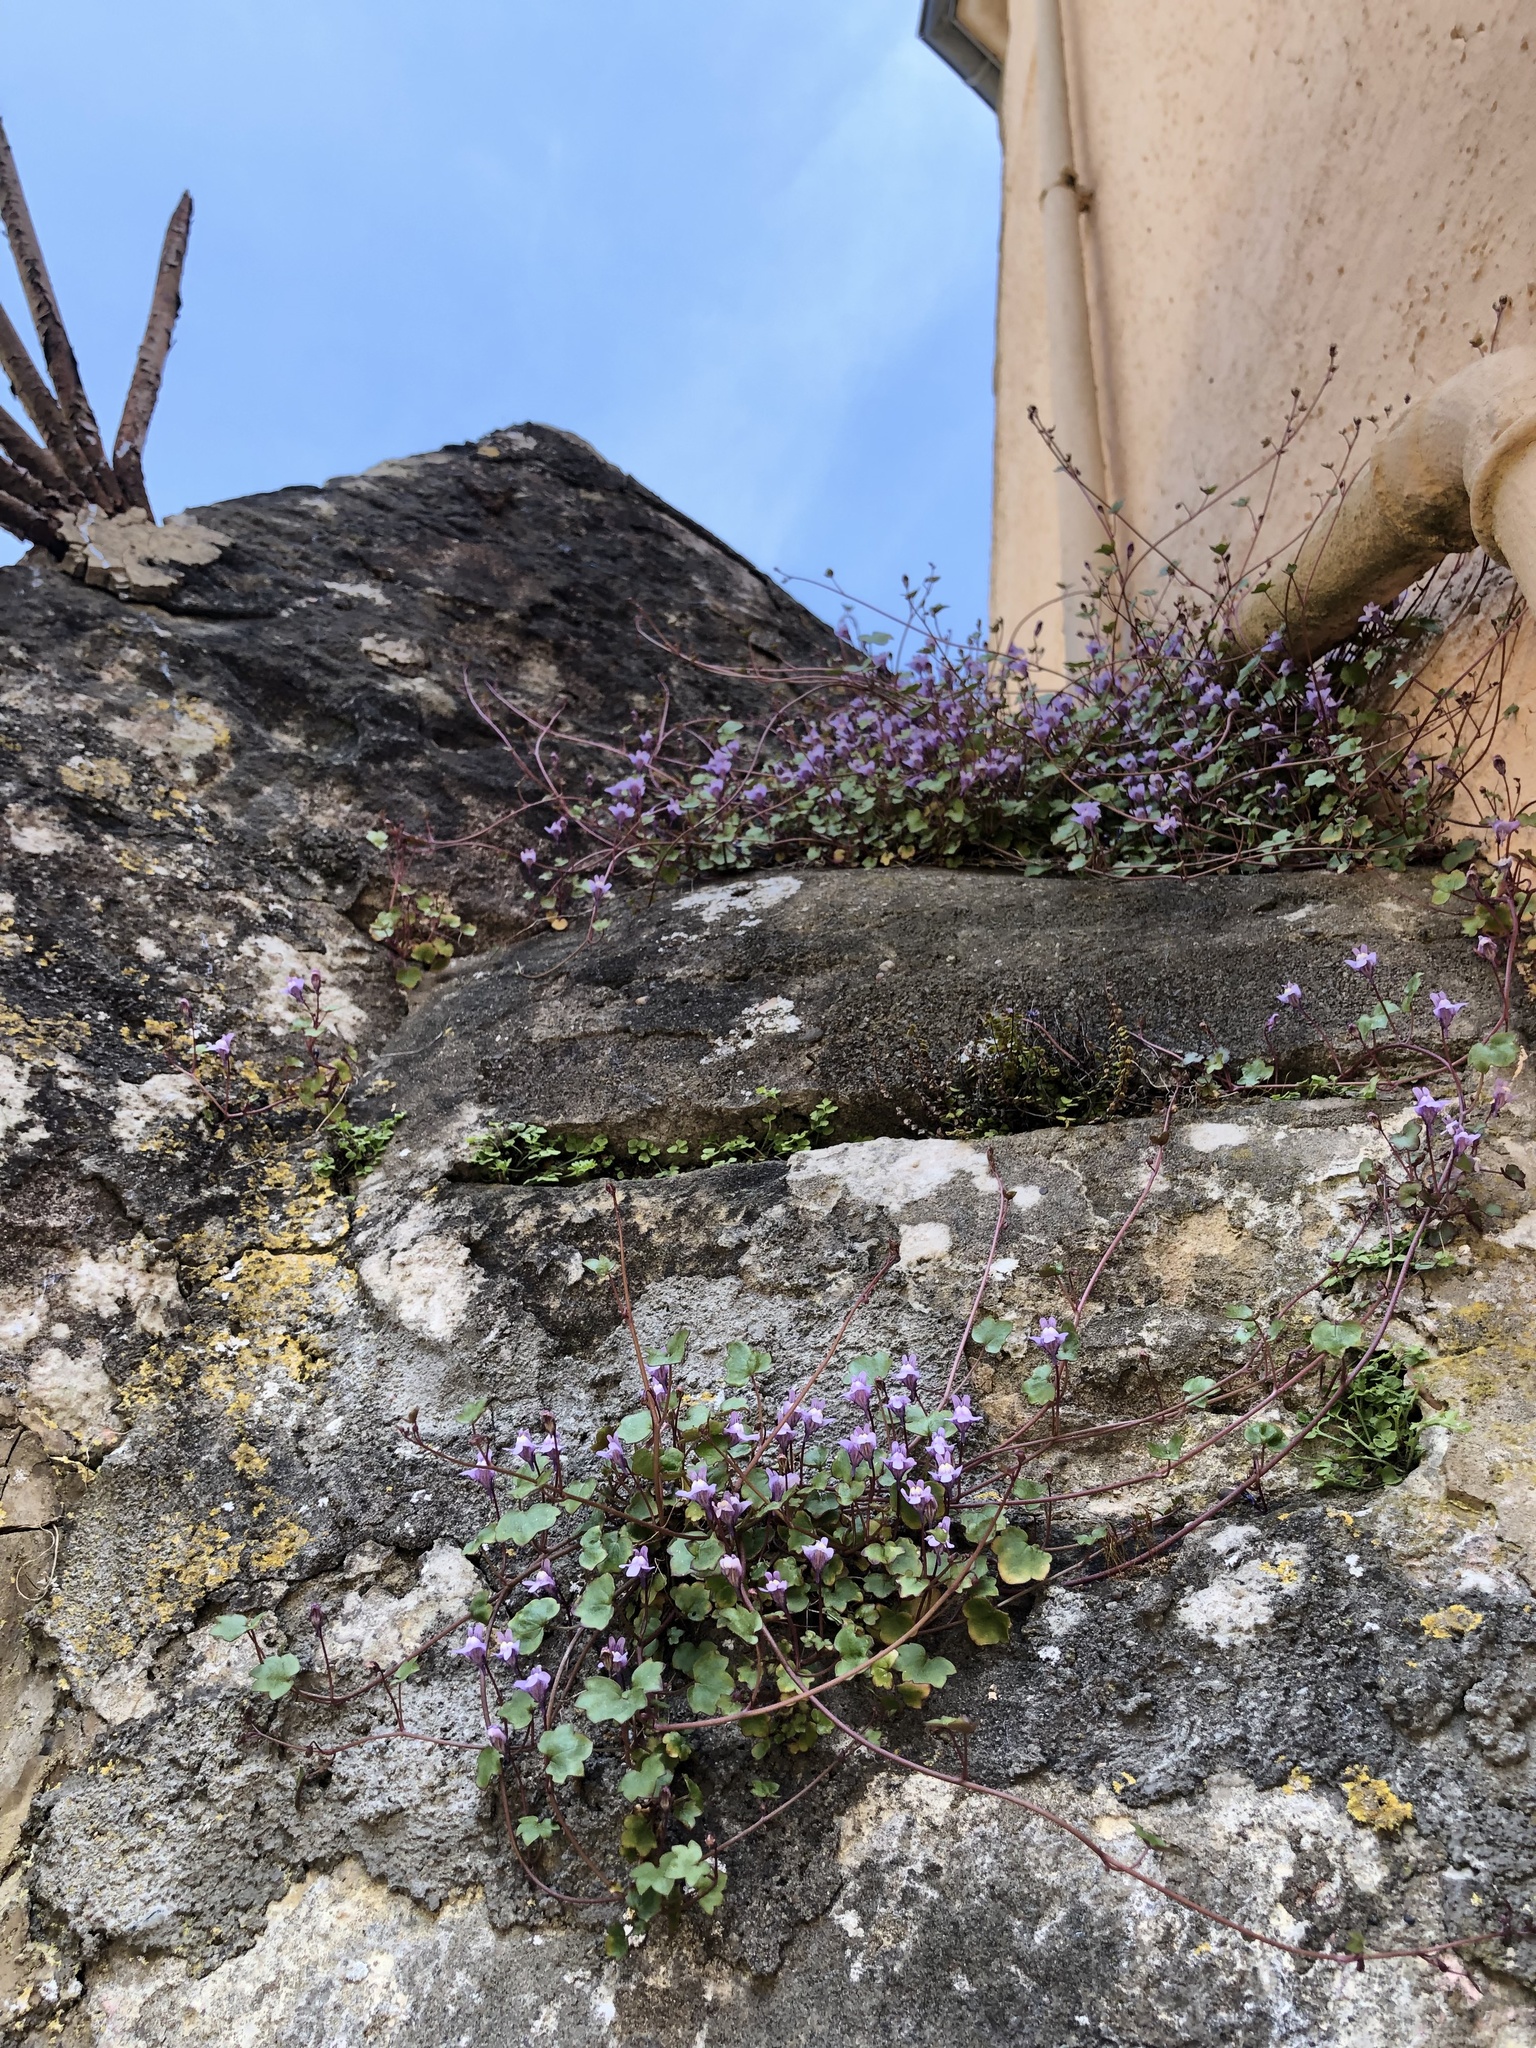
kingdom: Plantae
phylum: Tracheophyta
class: Magnoliopsida
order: Lamiales
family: Plantaginaceae
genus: Cymbalaria
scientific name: Cymbalaria muralis
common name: Ivy-leaved toadflax
